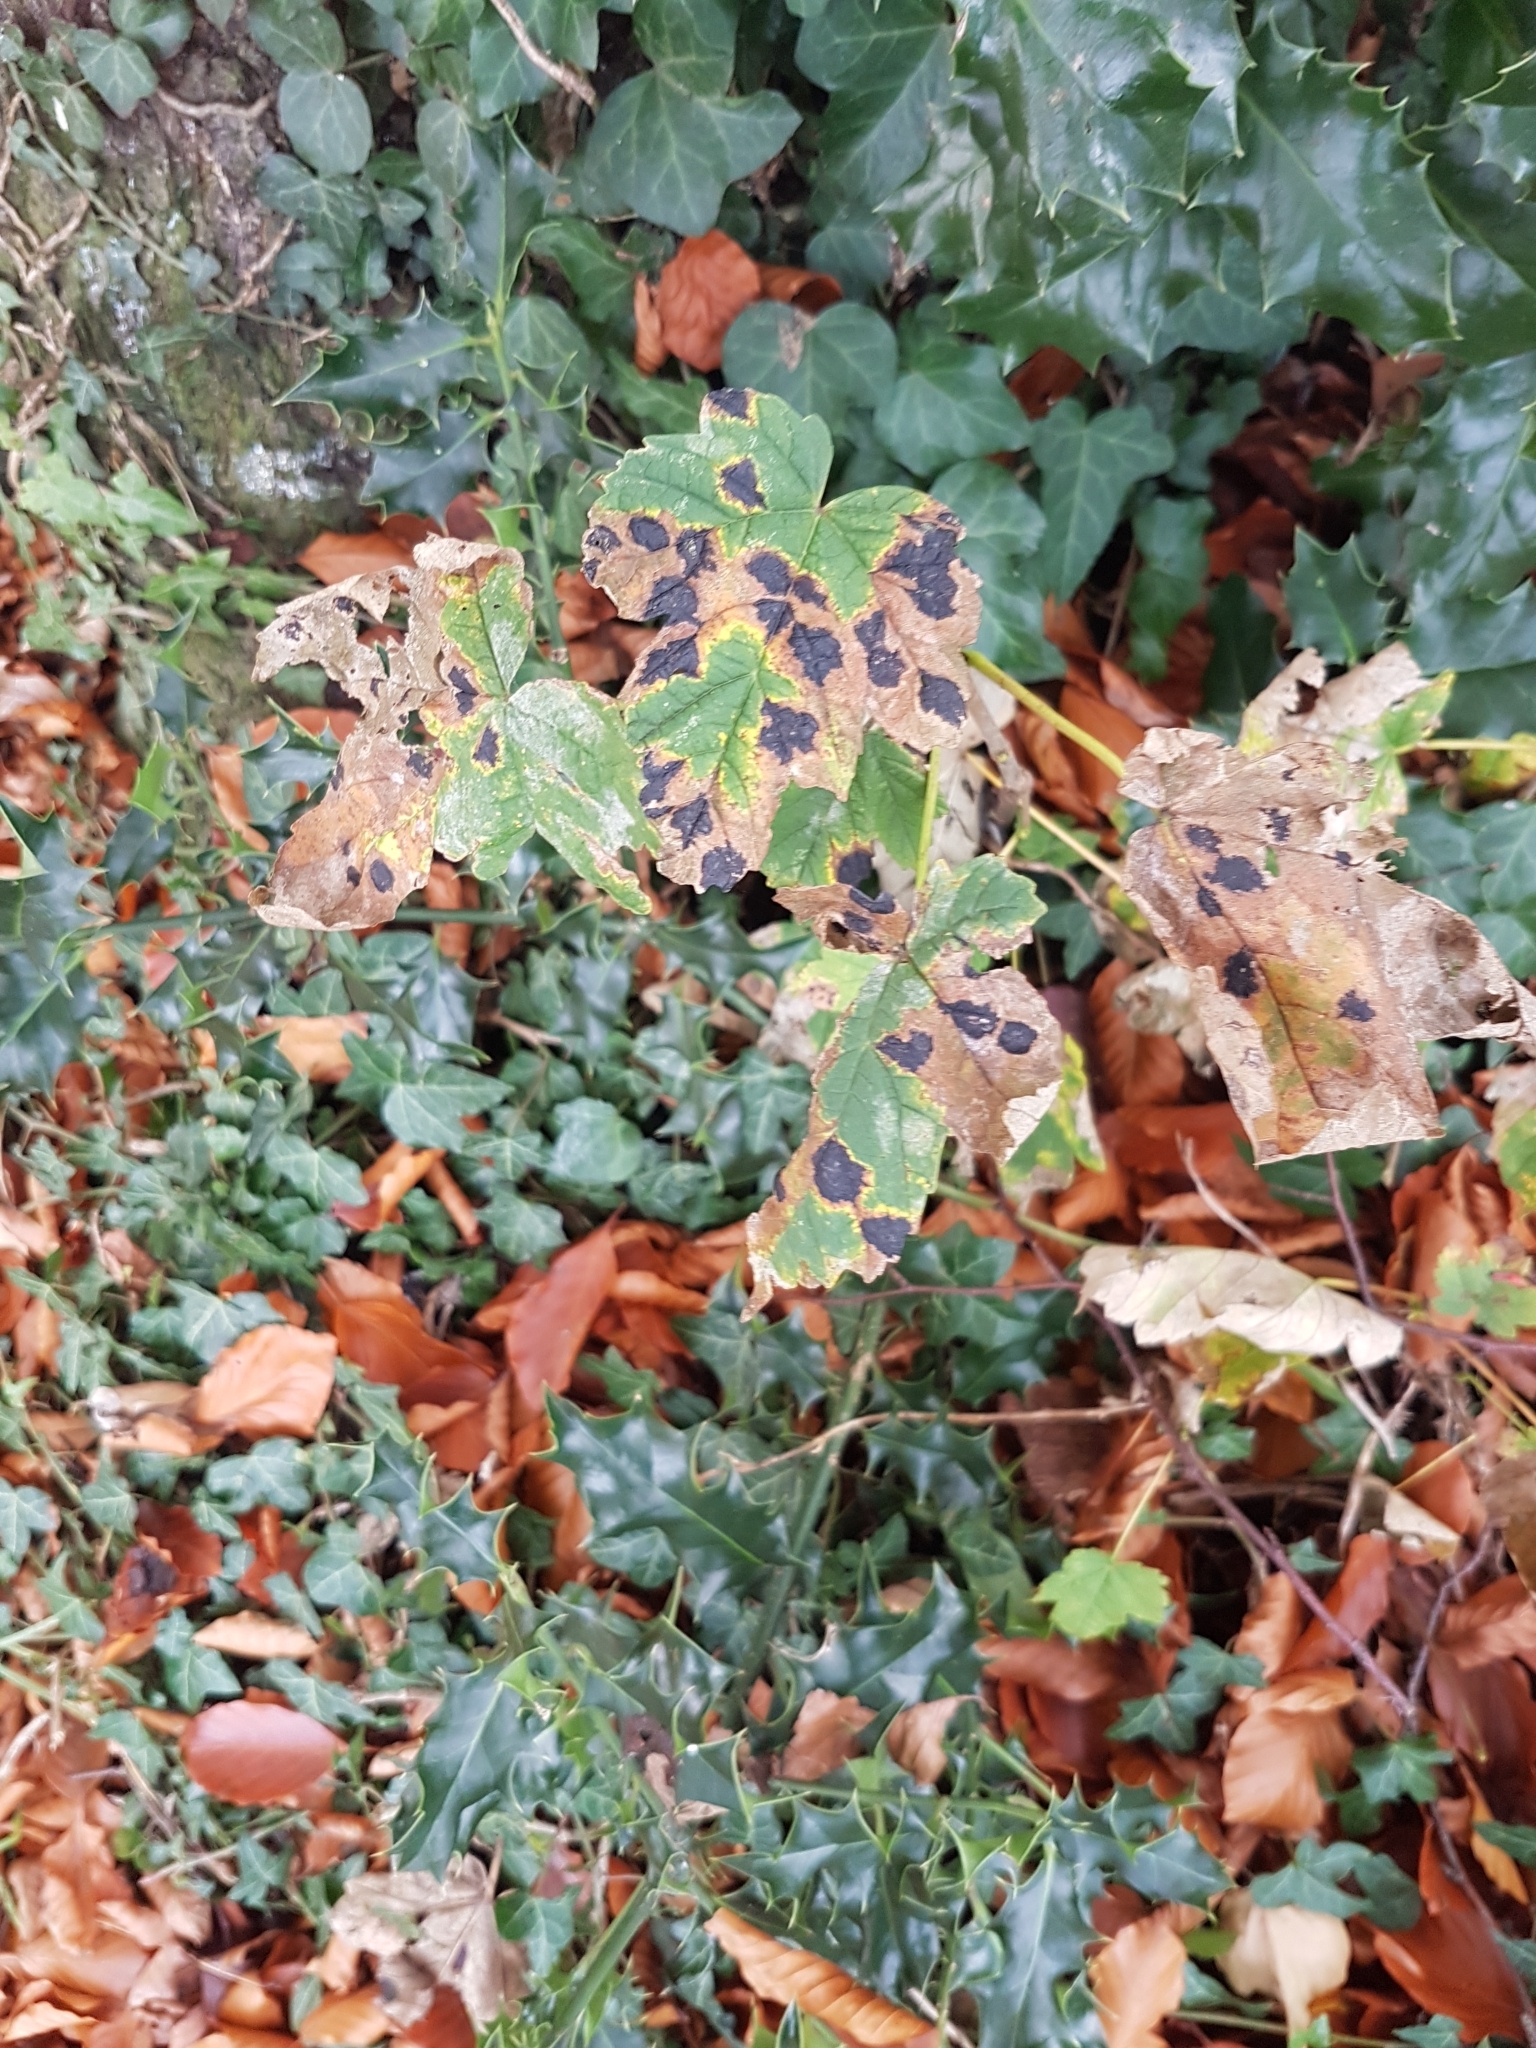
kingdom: Plantae
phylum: Tracheophyta
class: Magnoliopsida
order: Sapindales
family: Sapindaceae
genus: Acer
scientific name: Acer pseudoplatanus
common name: Sycamore
